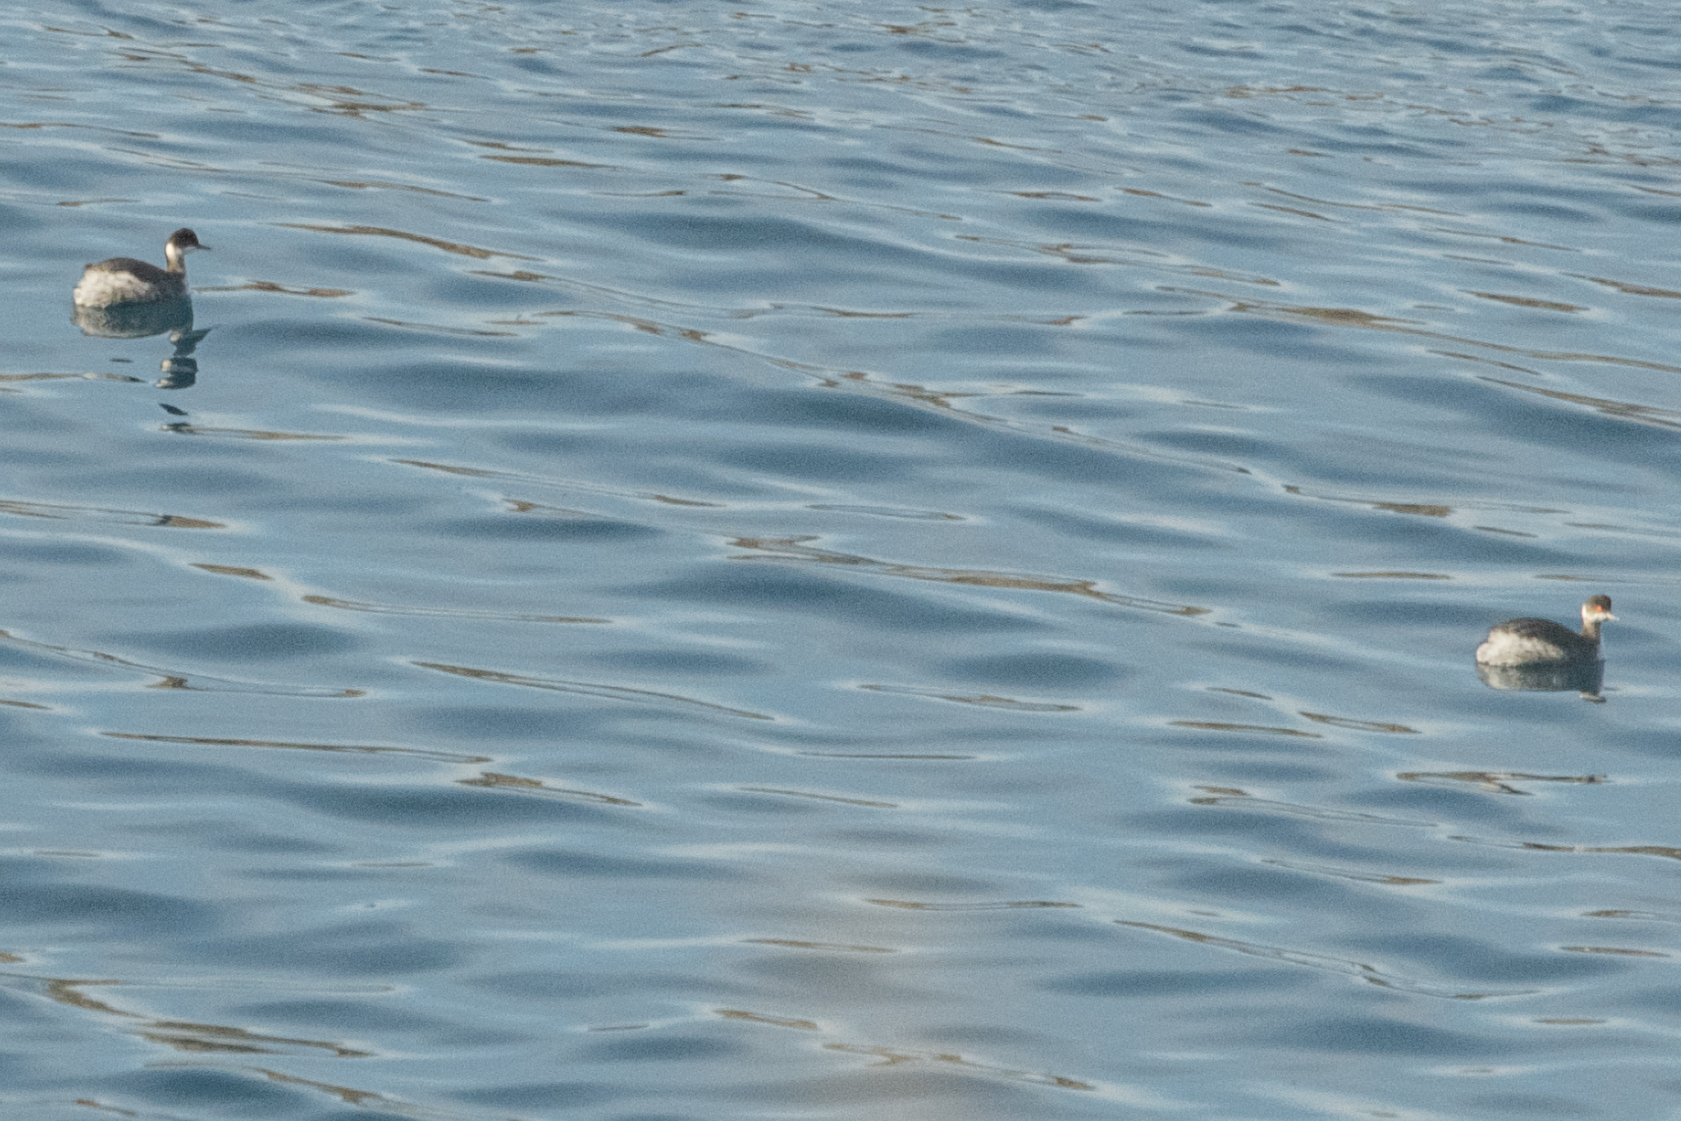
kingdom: Animalia
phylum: Chordata
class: Aves
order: Podicipediformes
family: Podicipedidae
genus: Podiceps
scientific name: Podiceps nigricollis
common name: Black-necked grebe
